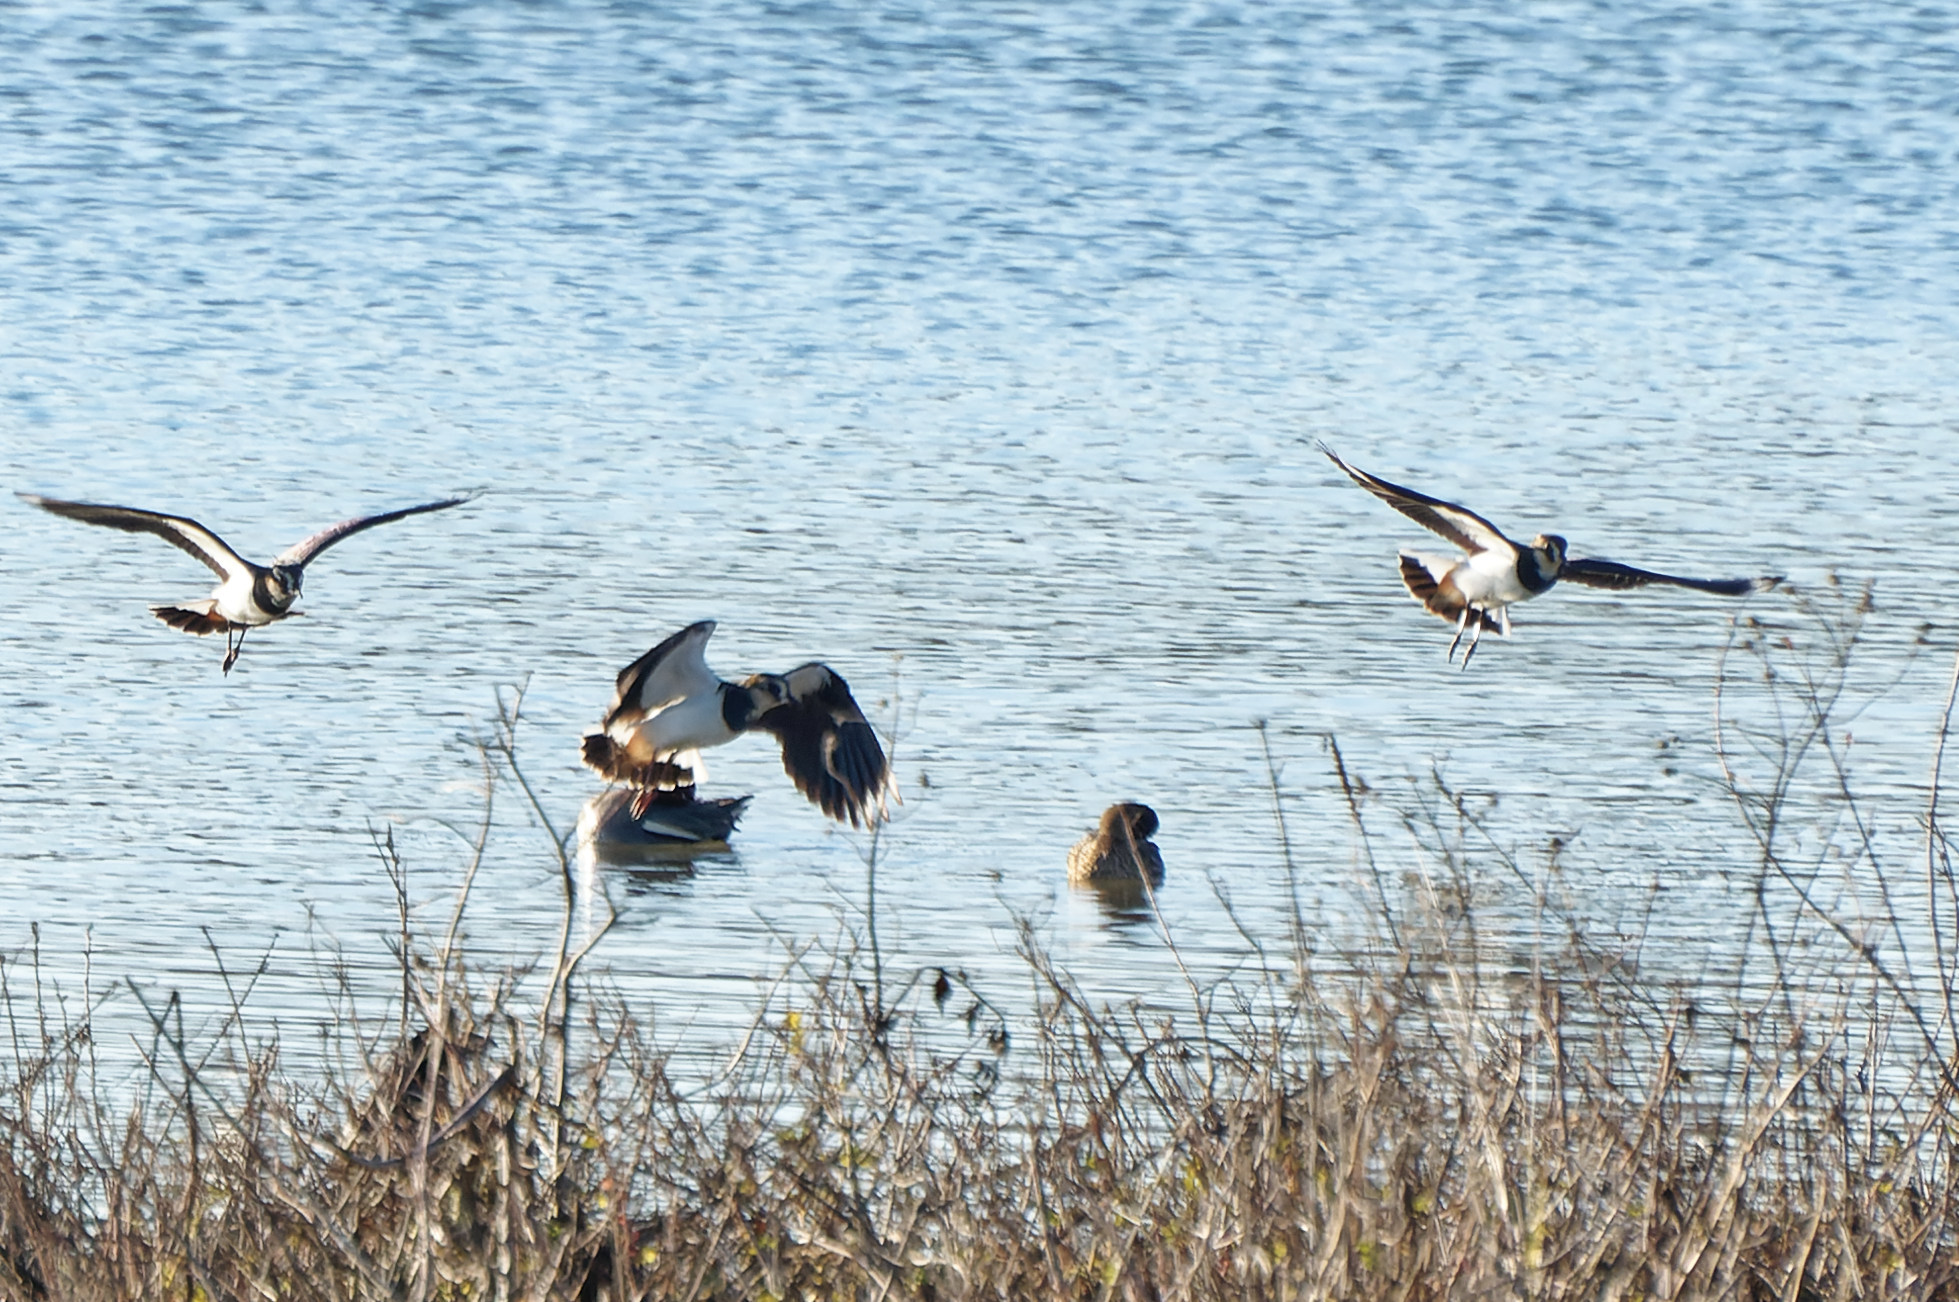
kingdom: Animalia
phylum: Chordata
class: Aves
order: Charadriiformes
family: Charadriidae
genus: Vanellus
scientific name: Vanellus vanellus
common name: Northern lapwing
